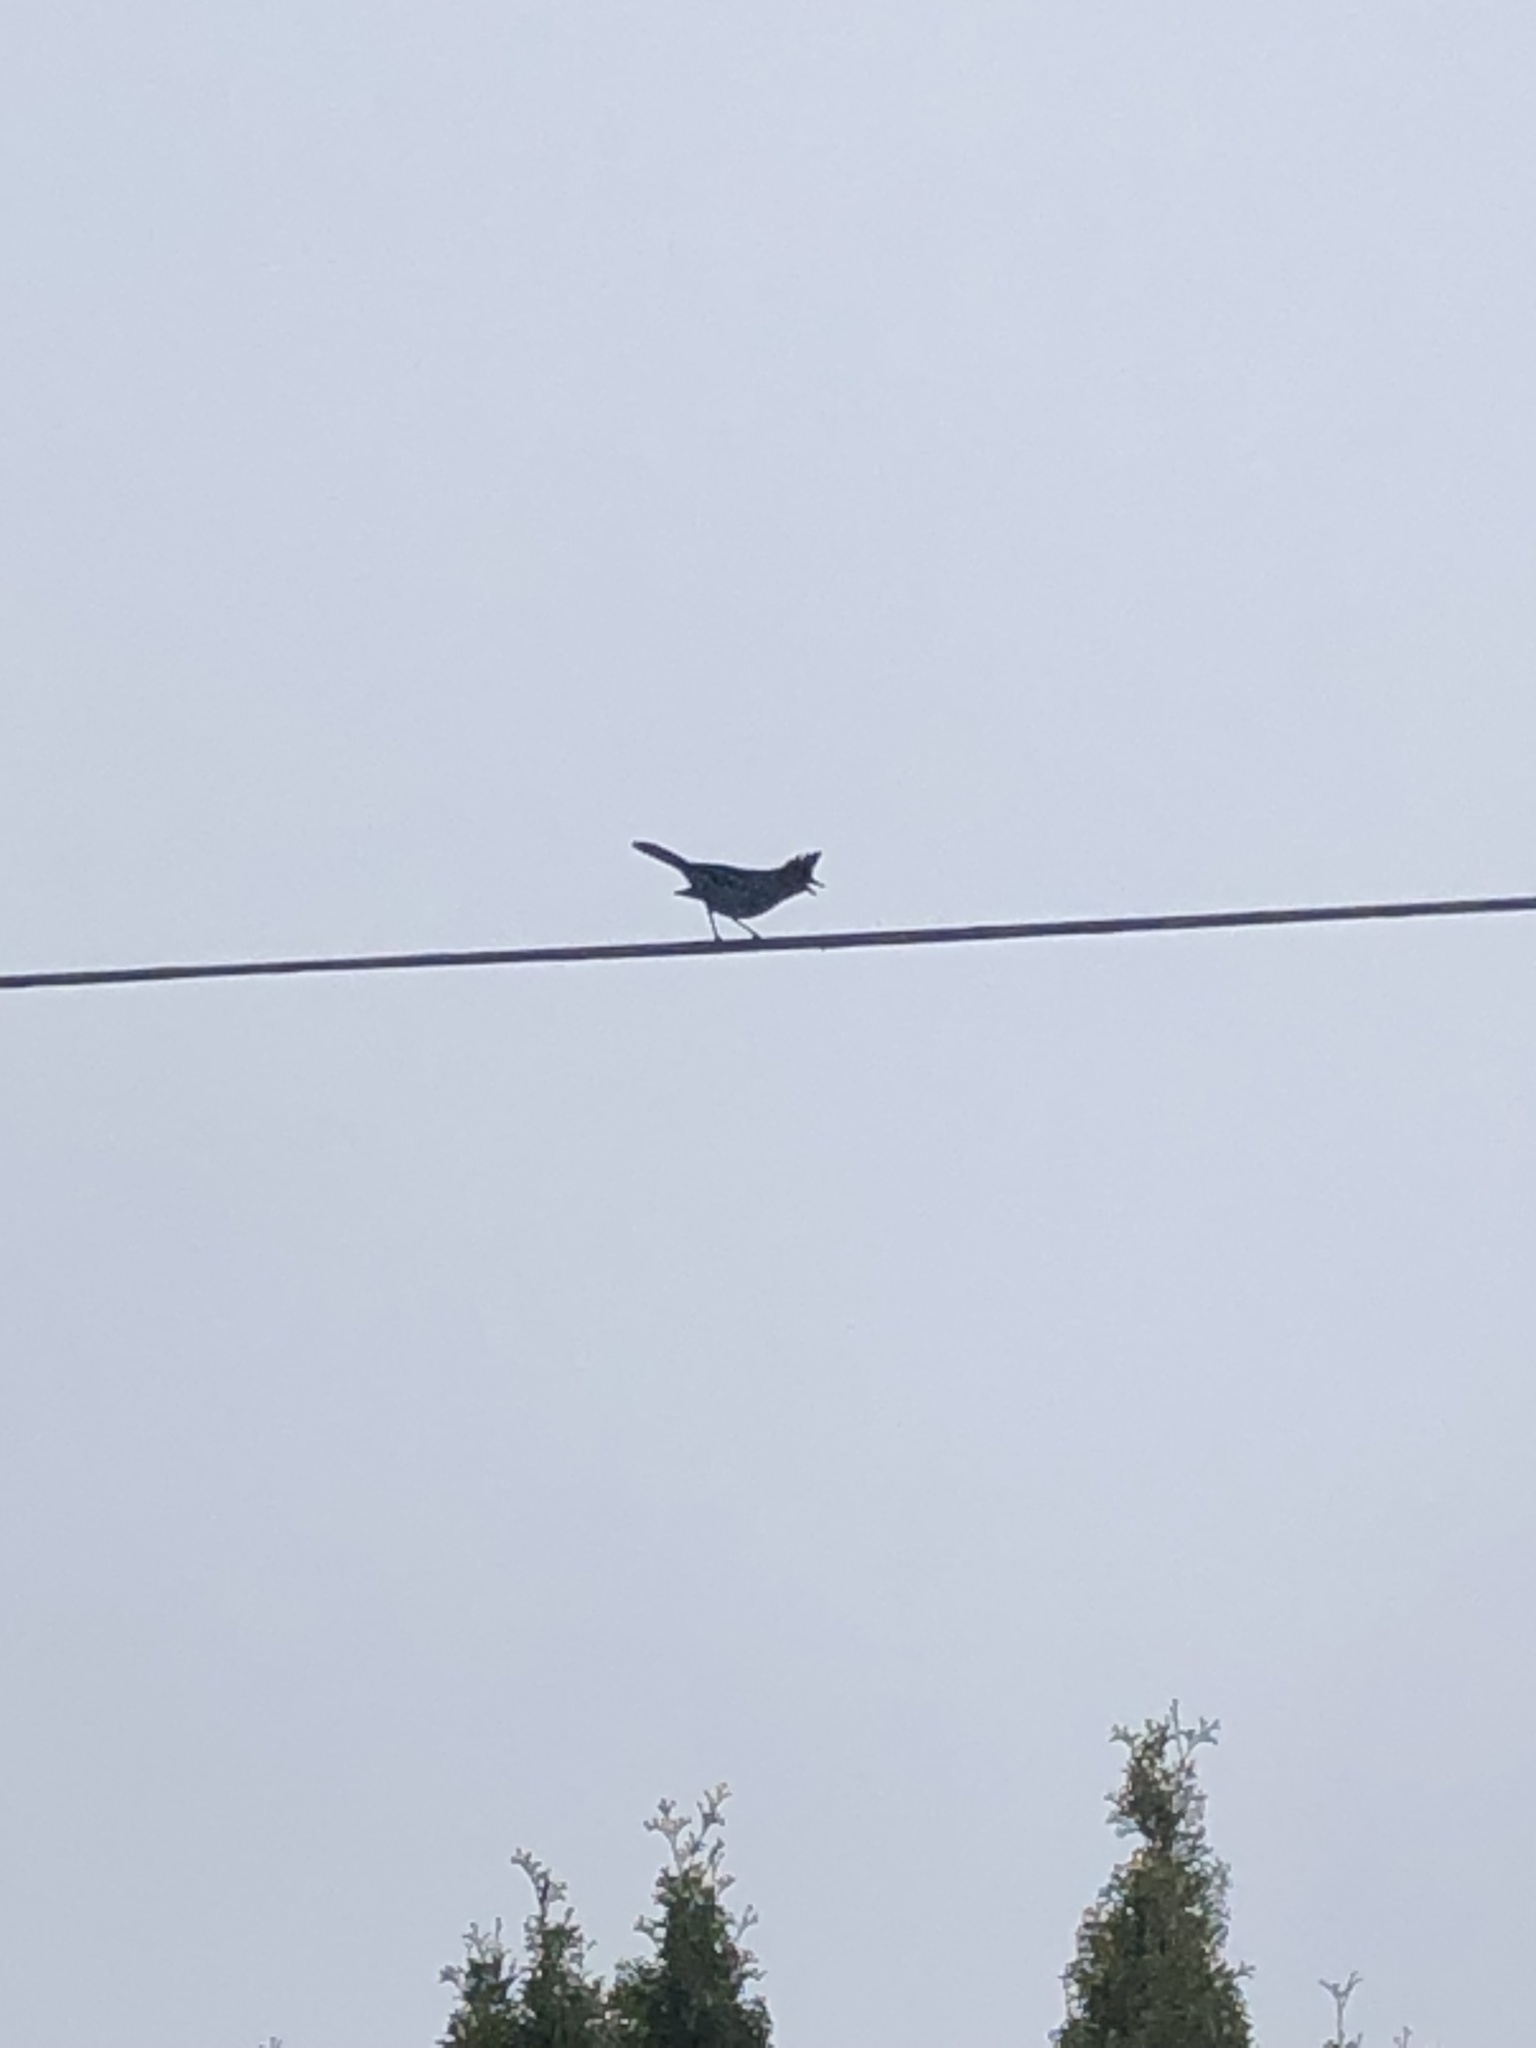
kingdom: Animalia
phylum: Chordata
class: Aves
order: Passeriformes
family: Corvidae
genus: Cyanocitta
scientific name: Cyanocitta stelleri
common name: Steller's jay
